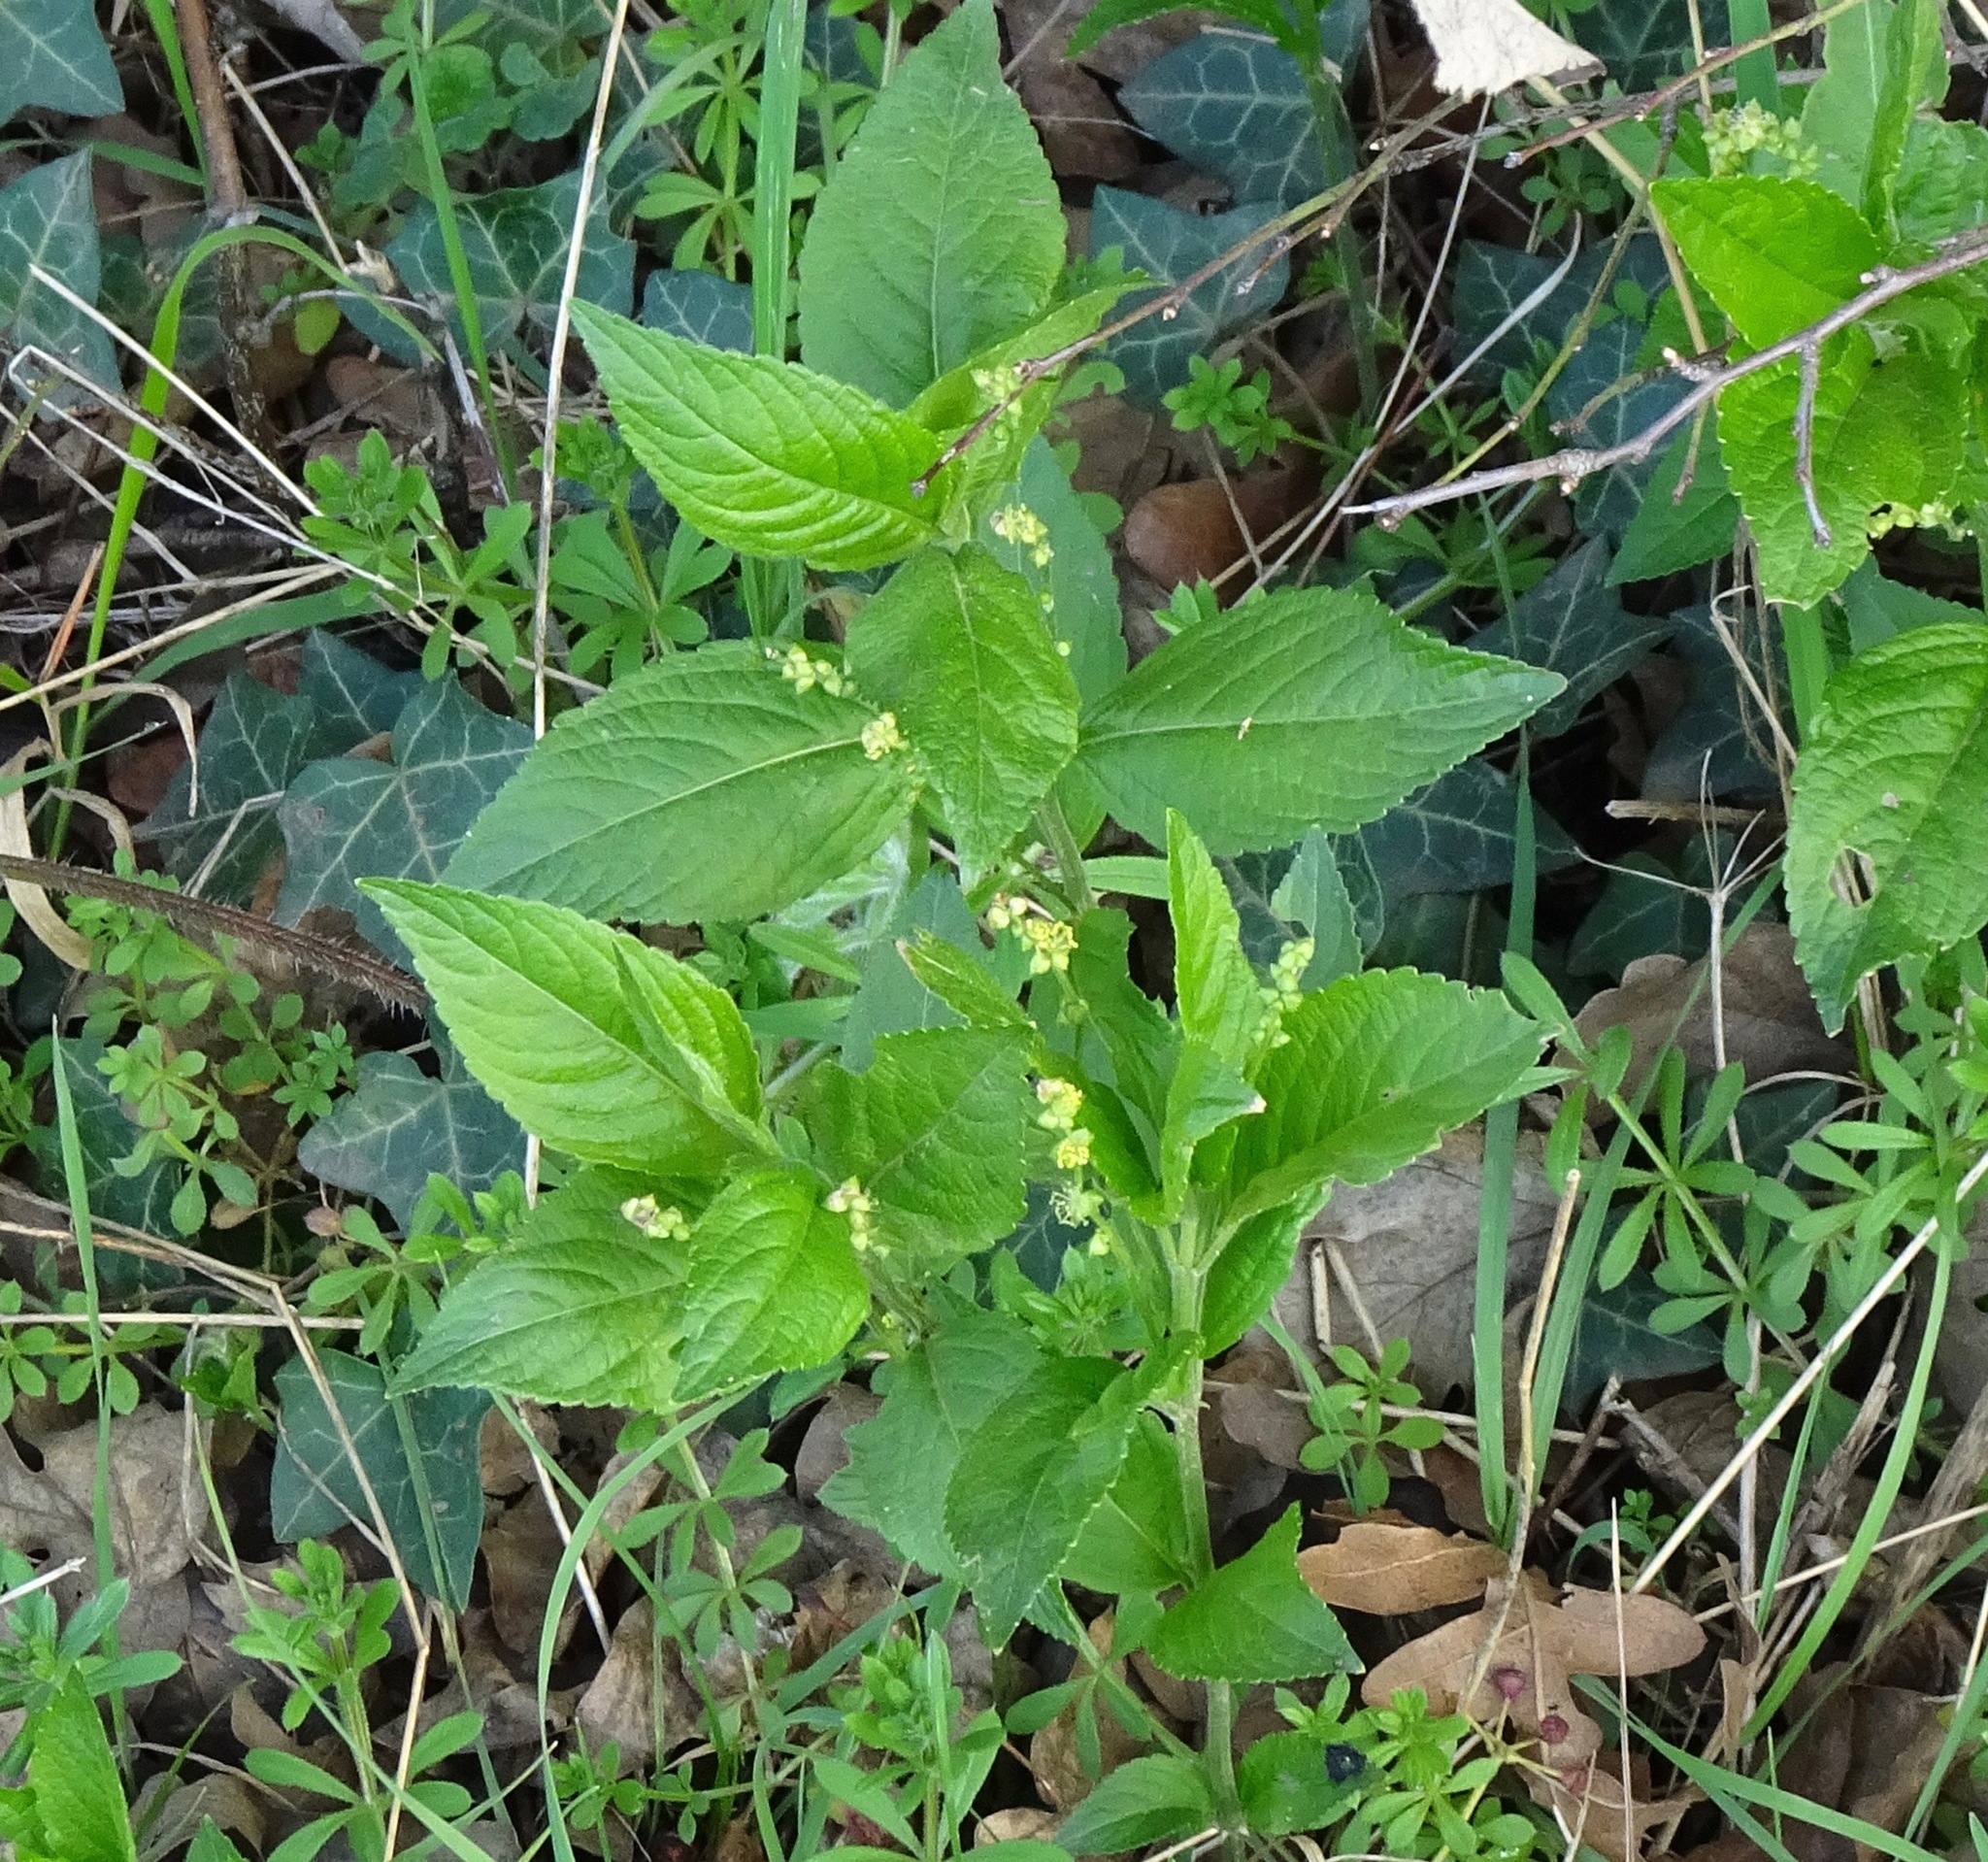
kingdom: Plantae
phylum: Tracheophyta
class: Magnoliopsida
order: Malpighiales
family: Euphorbiaceae
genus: Mercurialis
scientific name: Mercurialis perennis
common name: Dog mercury
